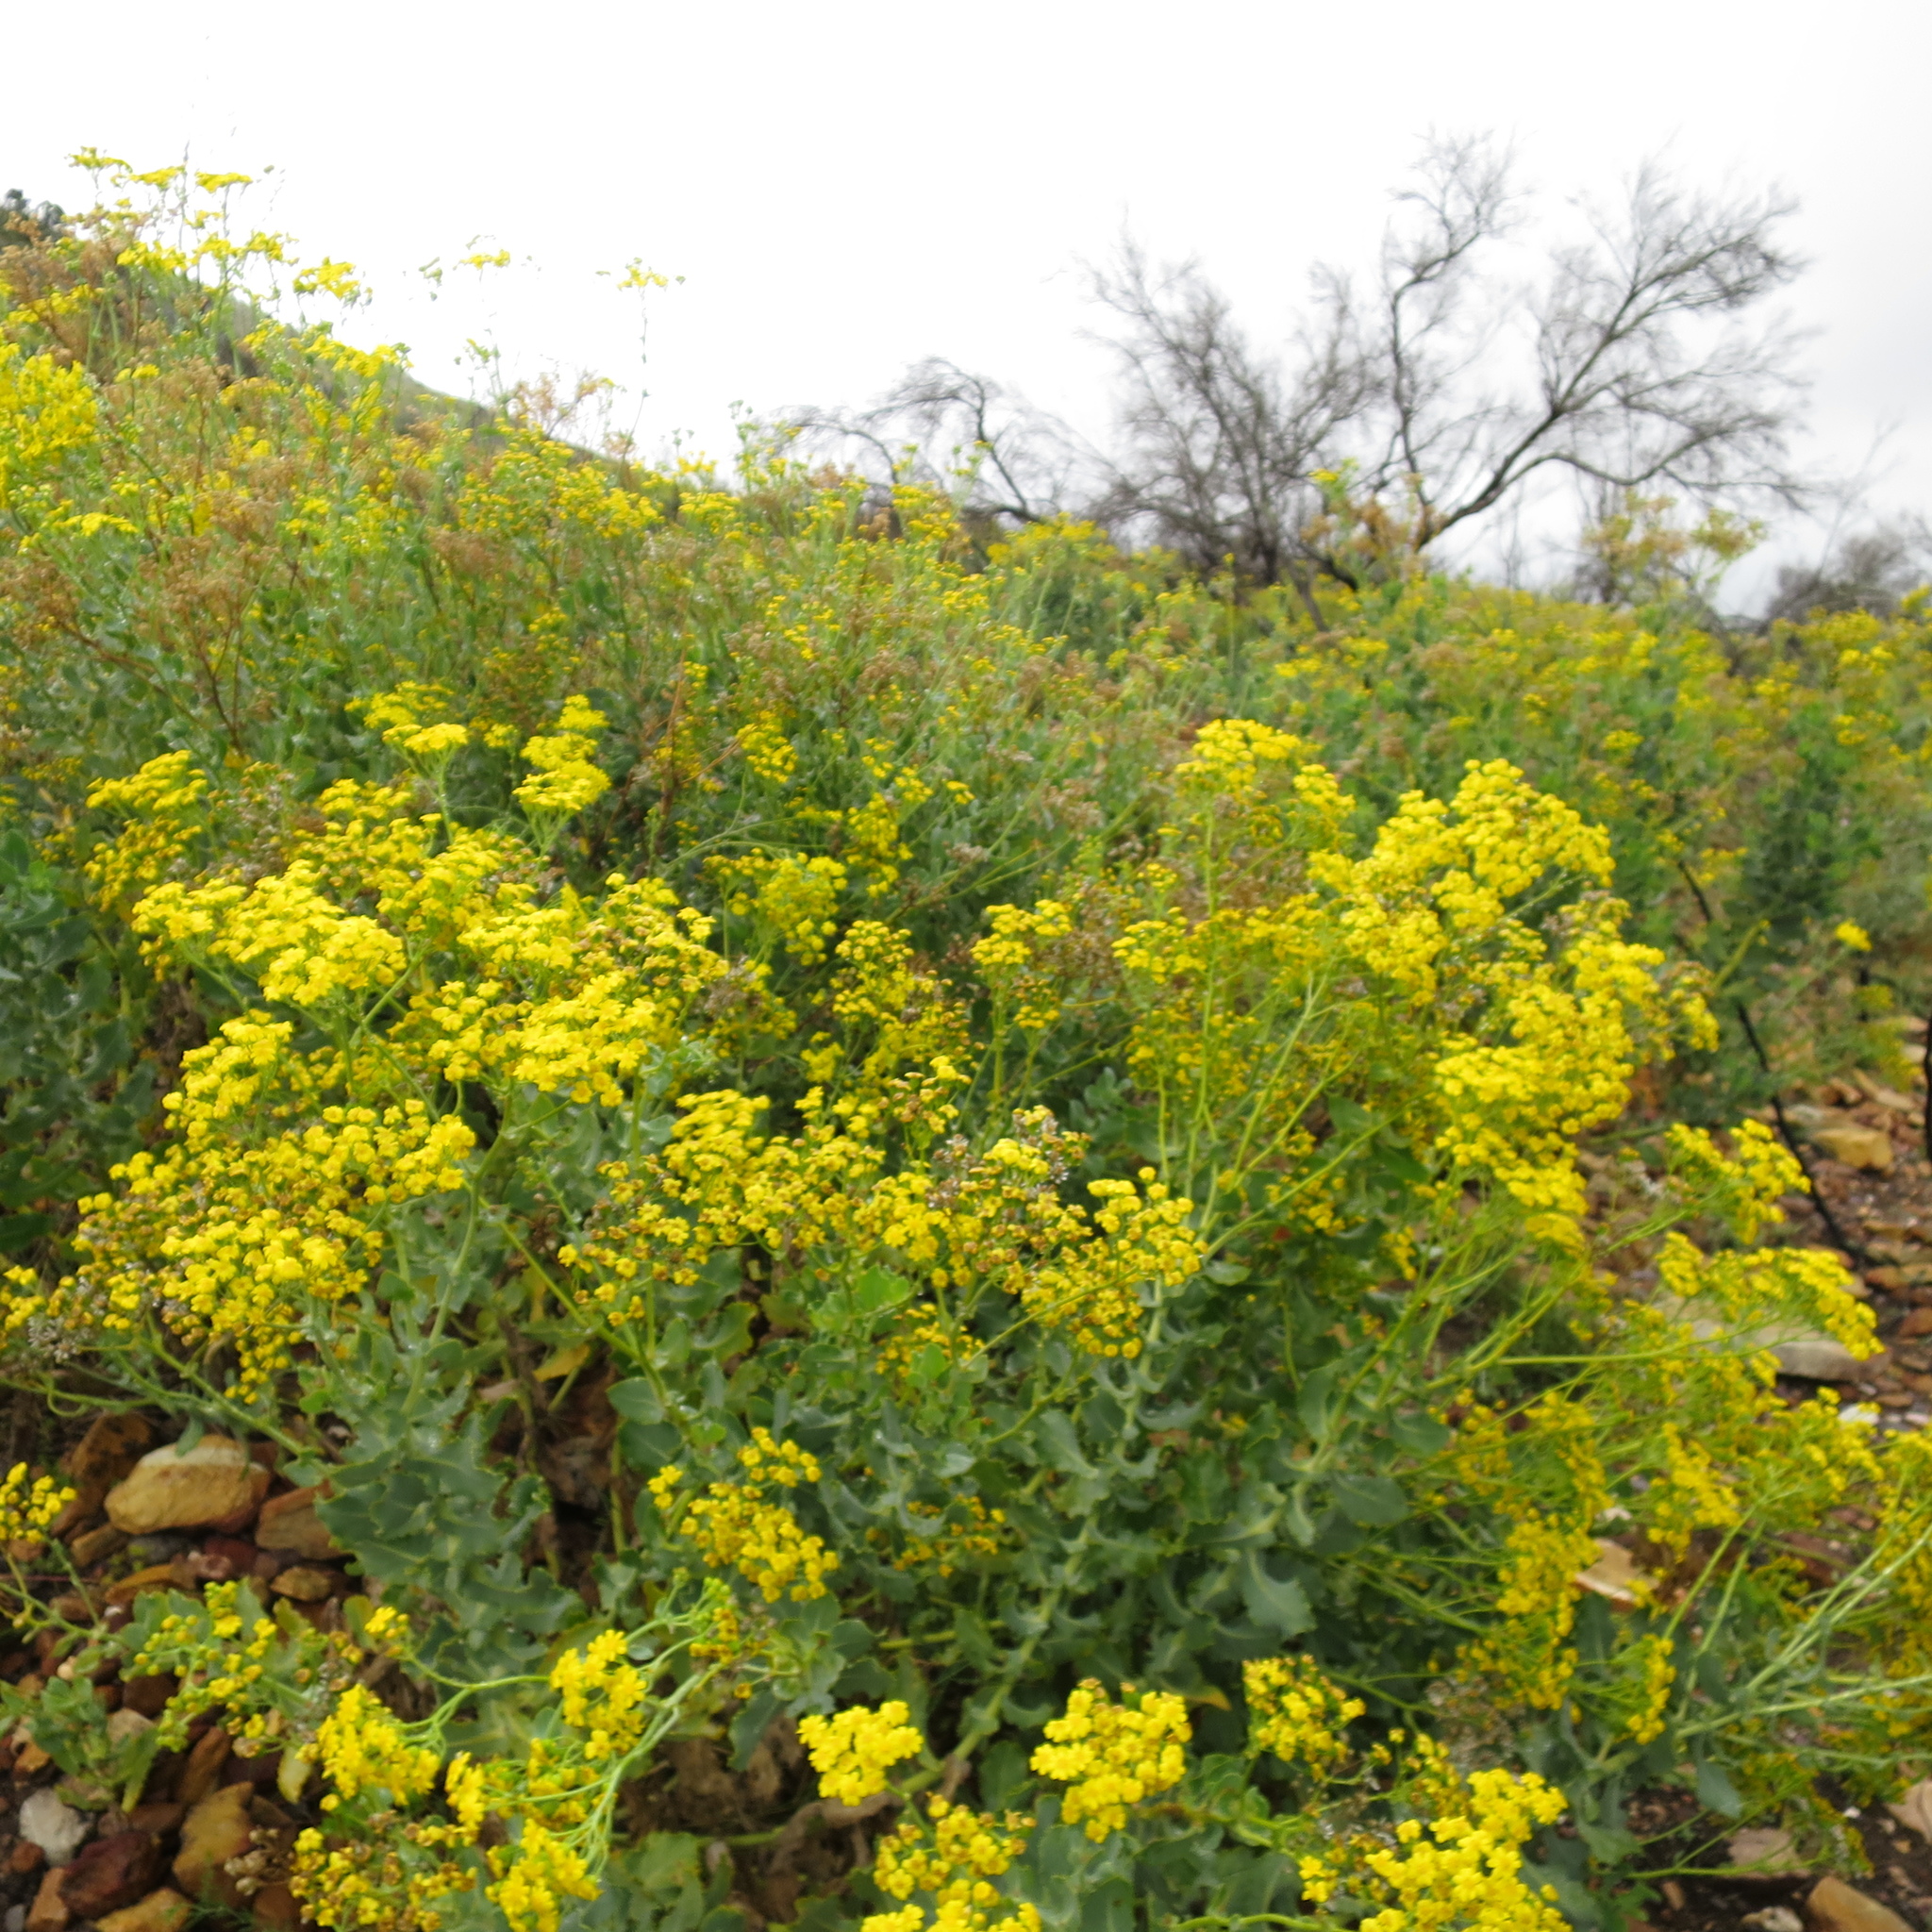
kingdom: Plantae
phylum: Tracheophyta
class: Magnoliopsida
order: Asterales
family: Asteraceae
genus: Othonna
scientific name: Othonna parviflora
